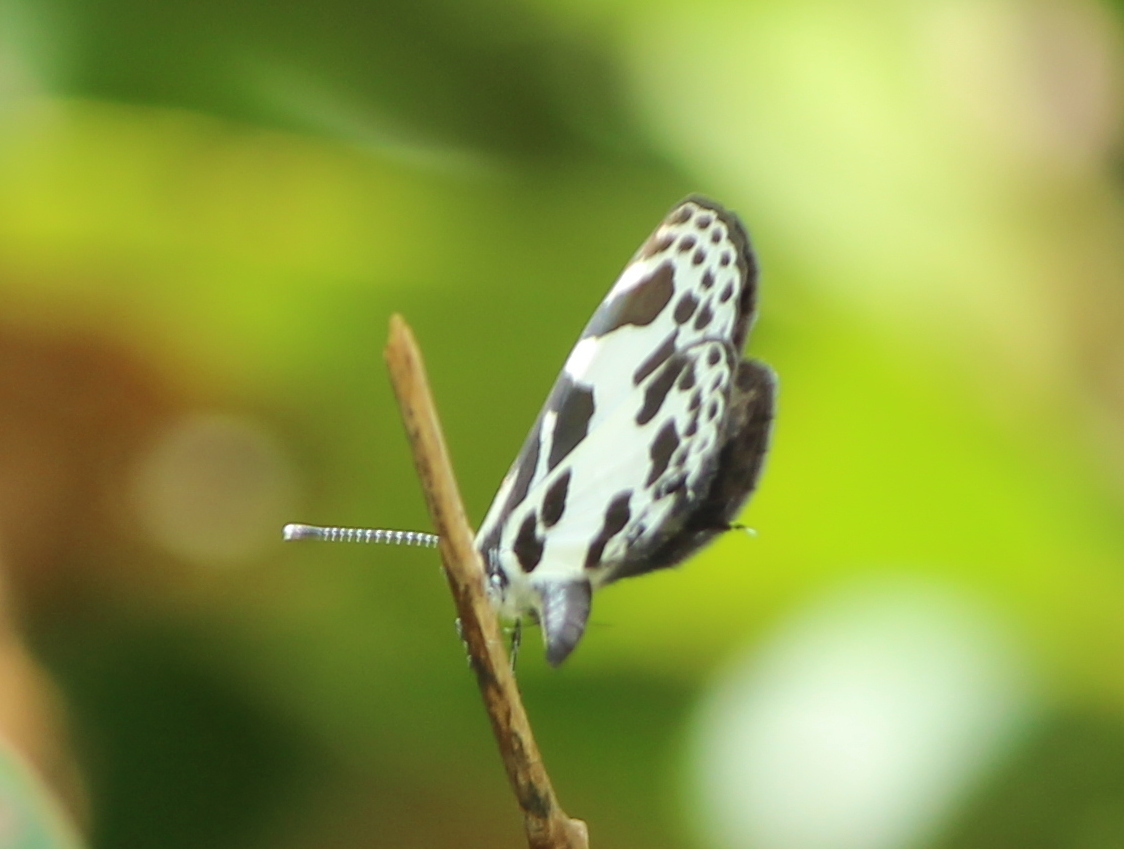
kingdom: Animalia
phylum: Arthropoda
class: Insecta
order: Lepidoptera
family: Lycaenidae
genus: Discolampa
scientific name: Discolampa ethion
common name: Banded blue pierrot
